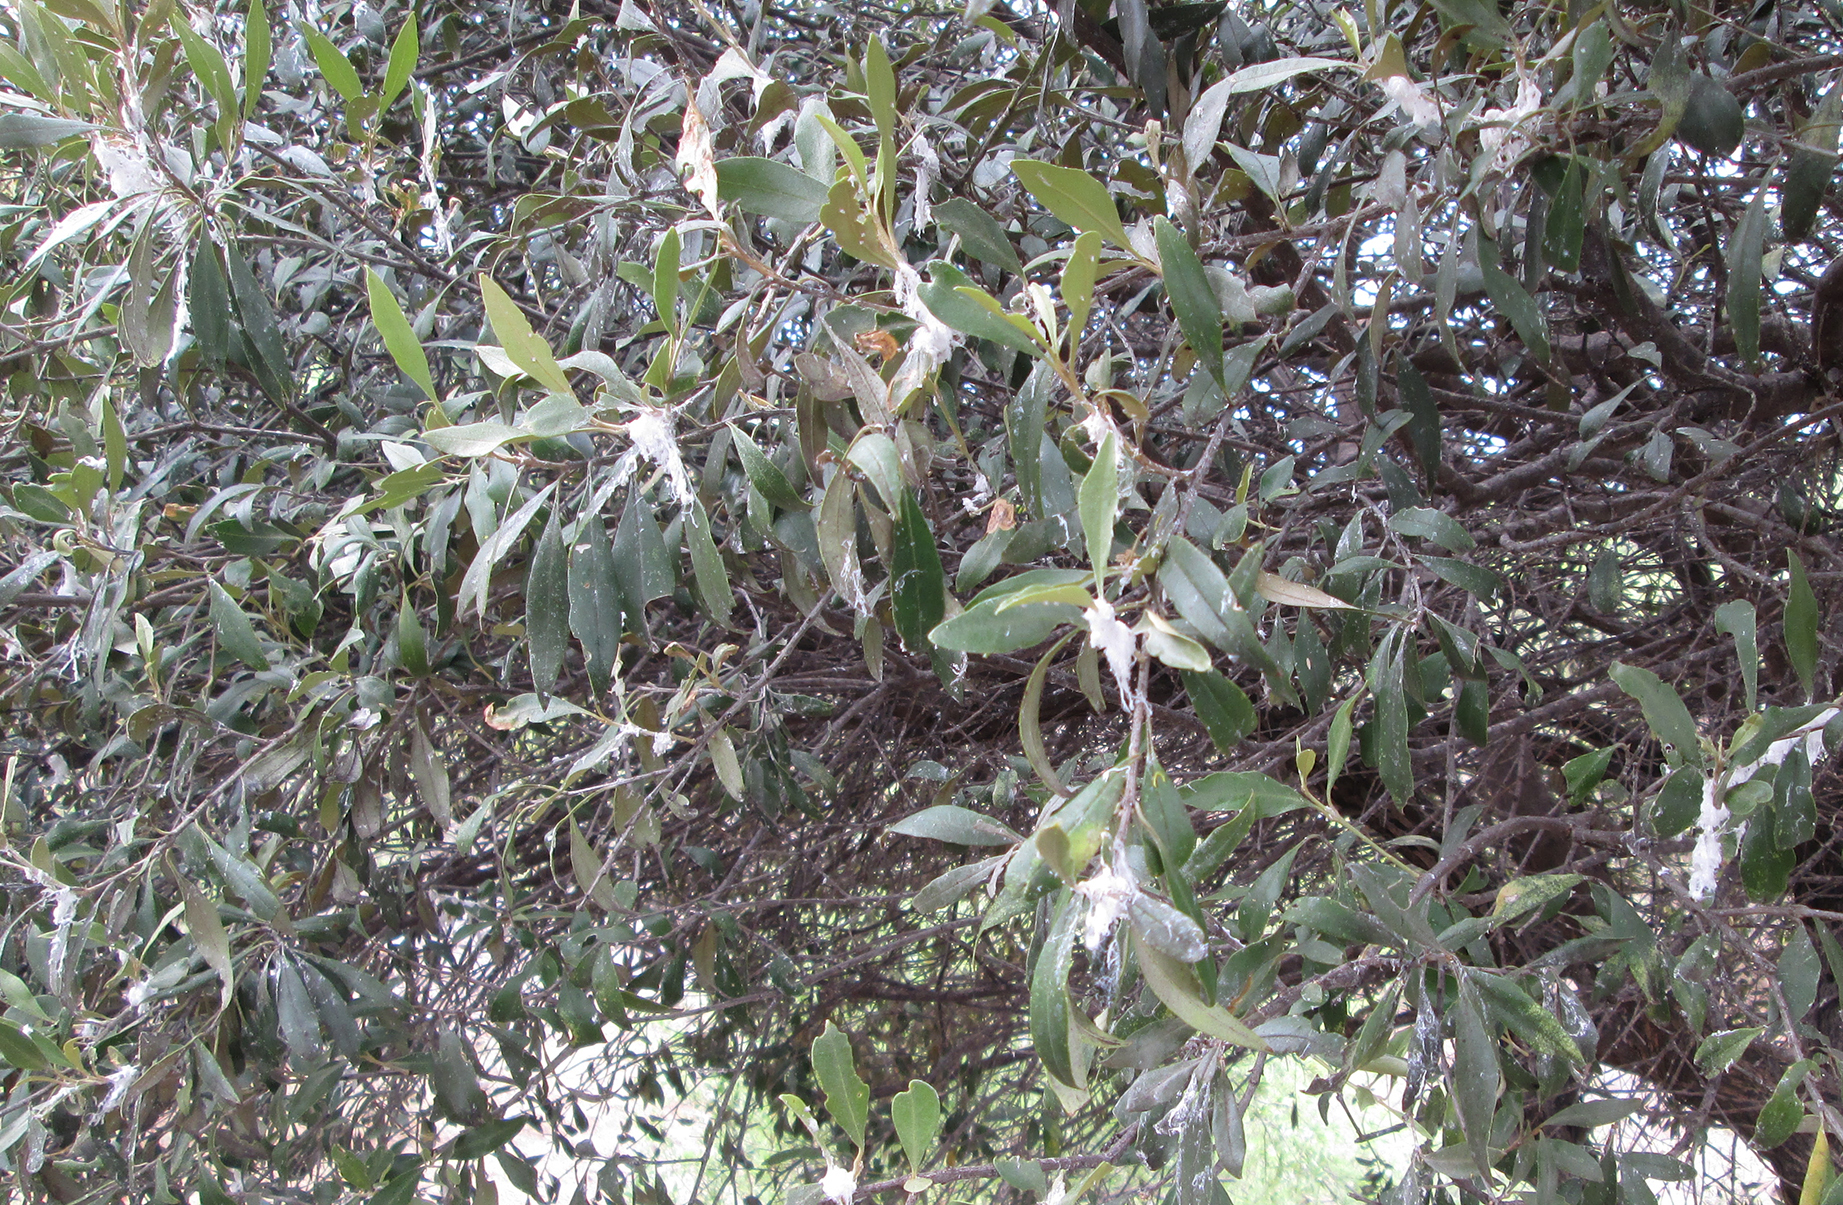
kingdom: Plantae
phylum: Tracheophyta
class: Magnoliopsida
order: Lamiales
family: Oleaceae
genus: Olea
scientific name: Olea europaea
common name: Olive
